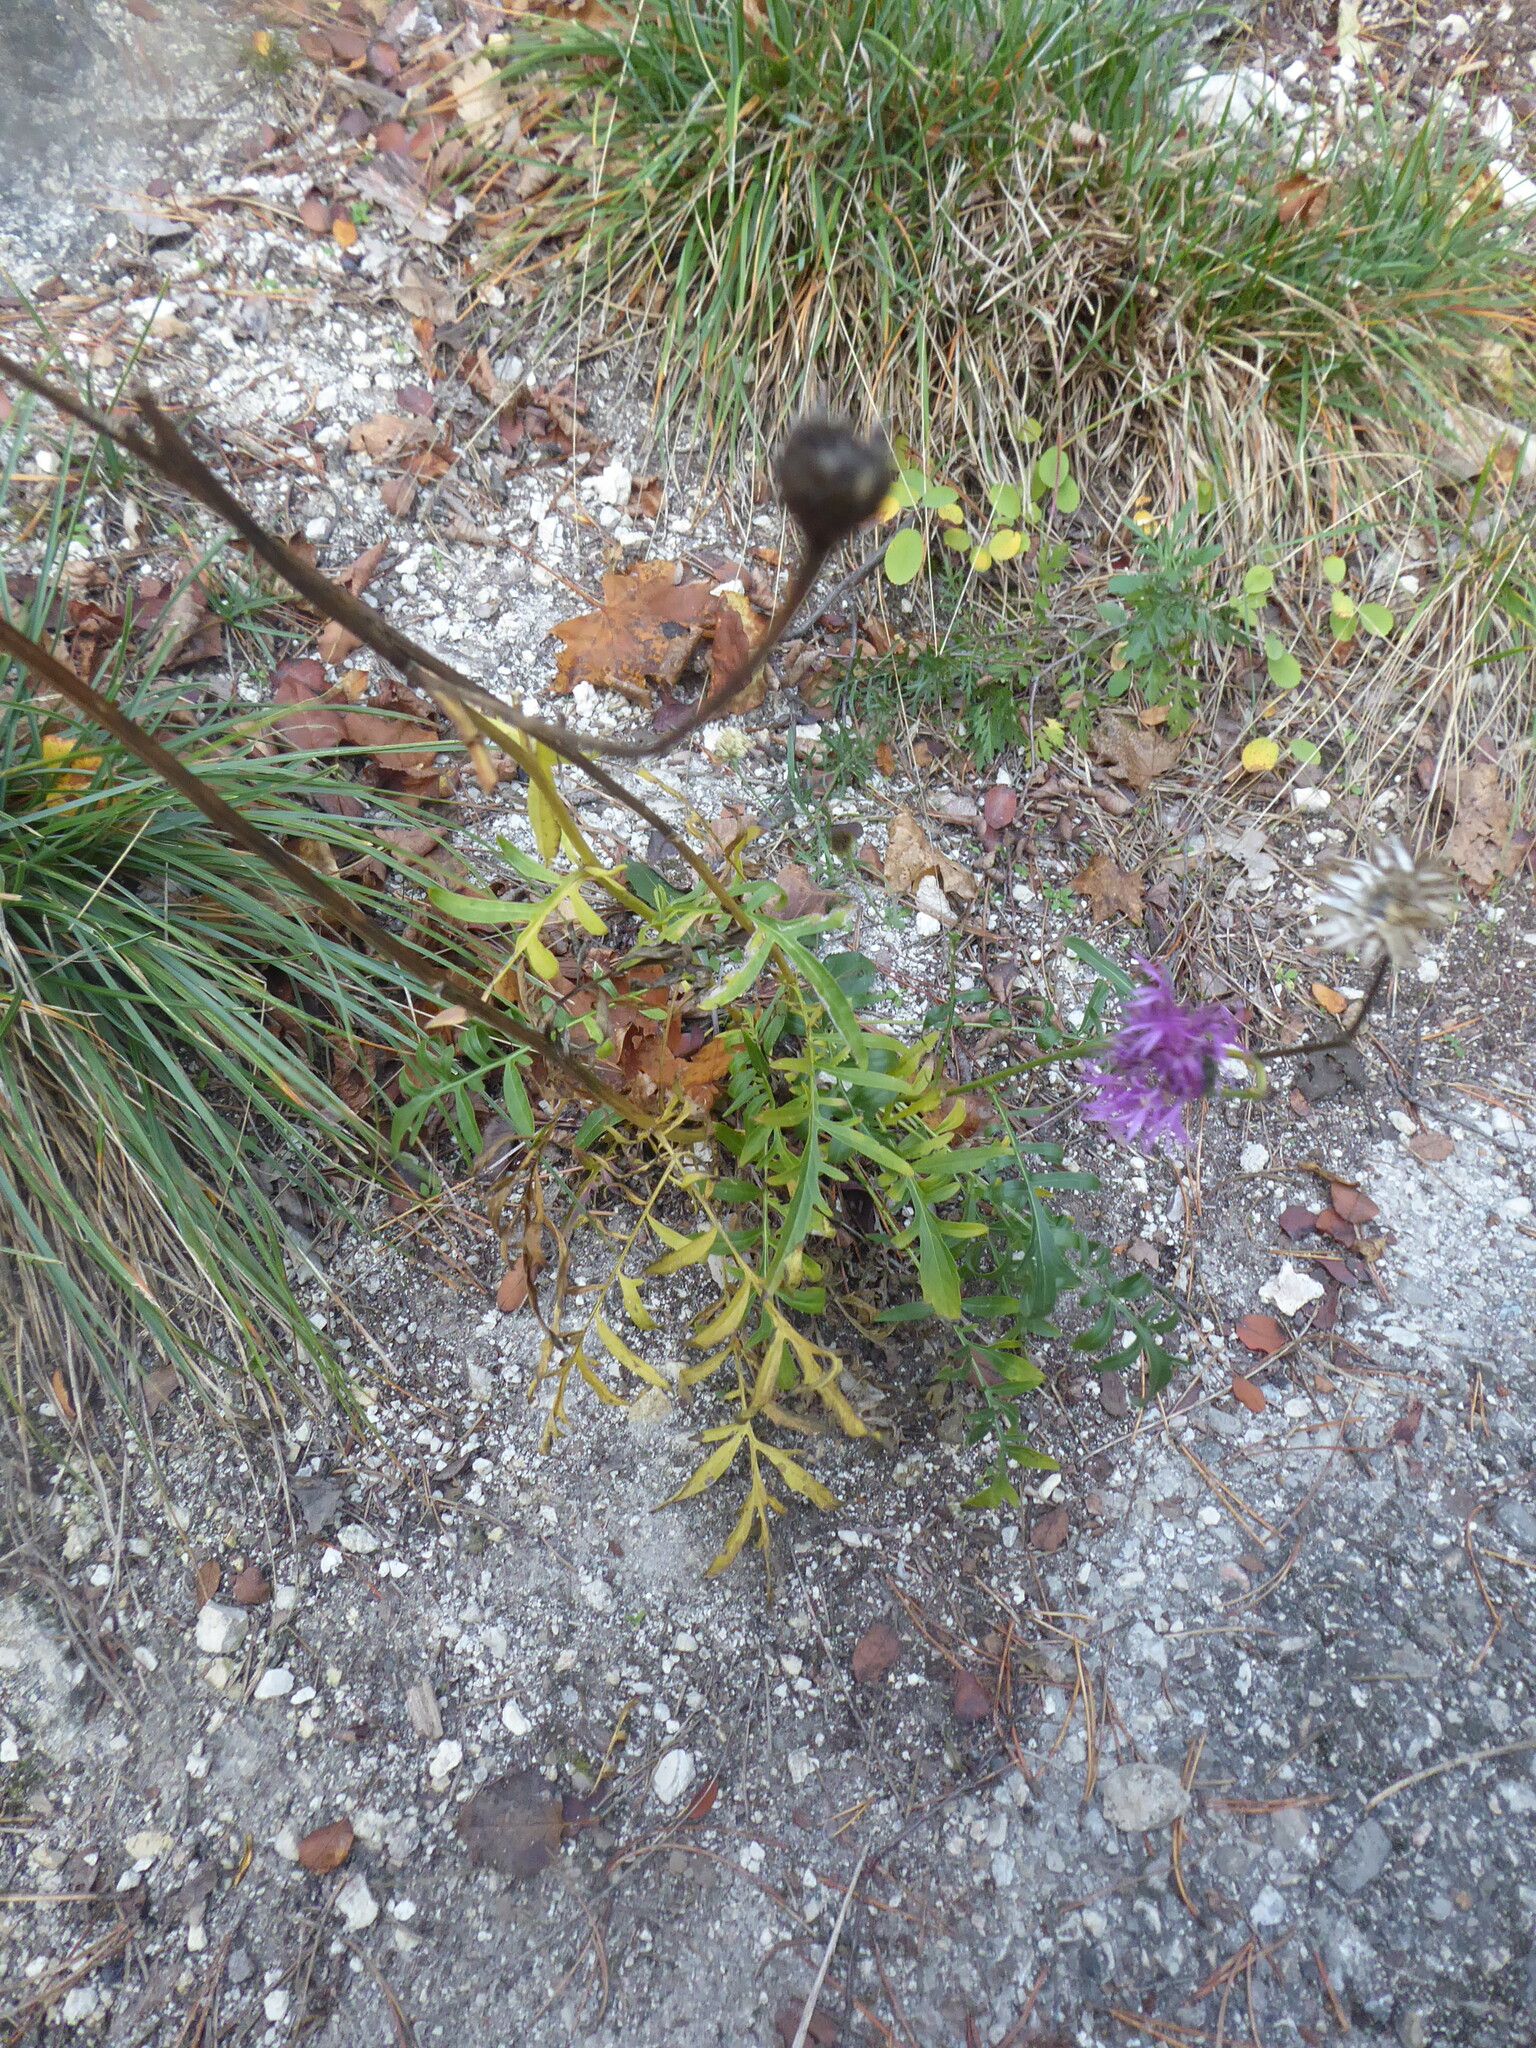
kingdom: Plantae
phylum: Tracheophyta
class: Magnoliopsida
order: Asterales
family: Asteraceae
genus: Centaurea
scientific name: Centaurea scabiosa
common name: Greater knapweed
